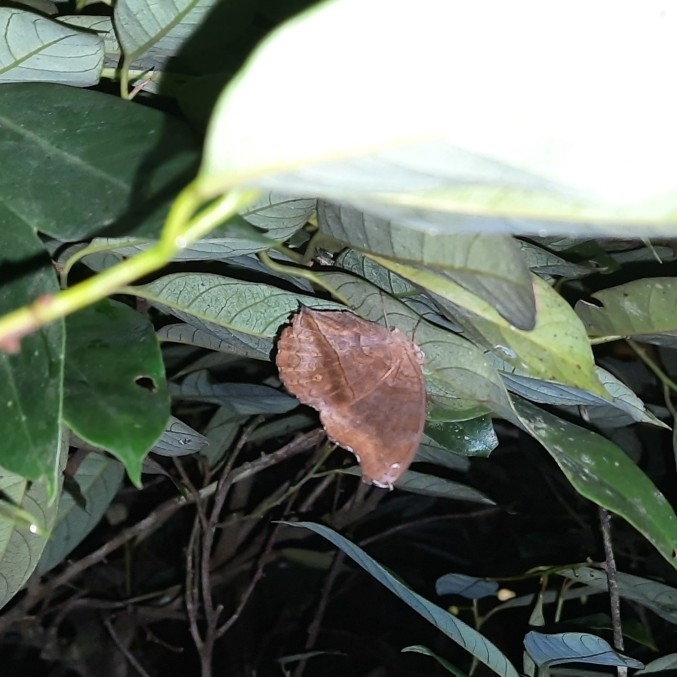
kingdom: Animalia
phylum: Arthropoda
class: Insecta
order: Lepidoptera
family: Nymphalidae
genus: Junonia
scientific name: Junonia iphita
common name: Chocolate pansy
